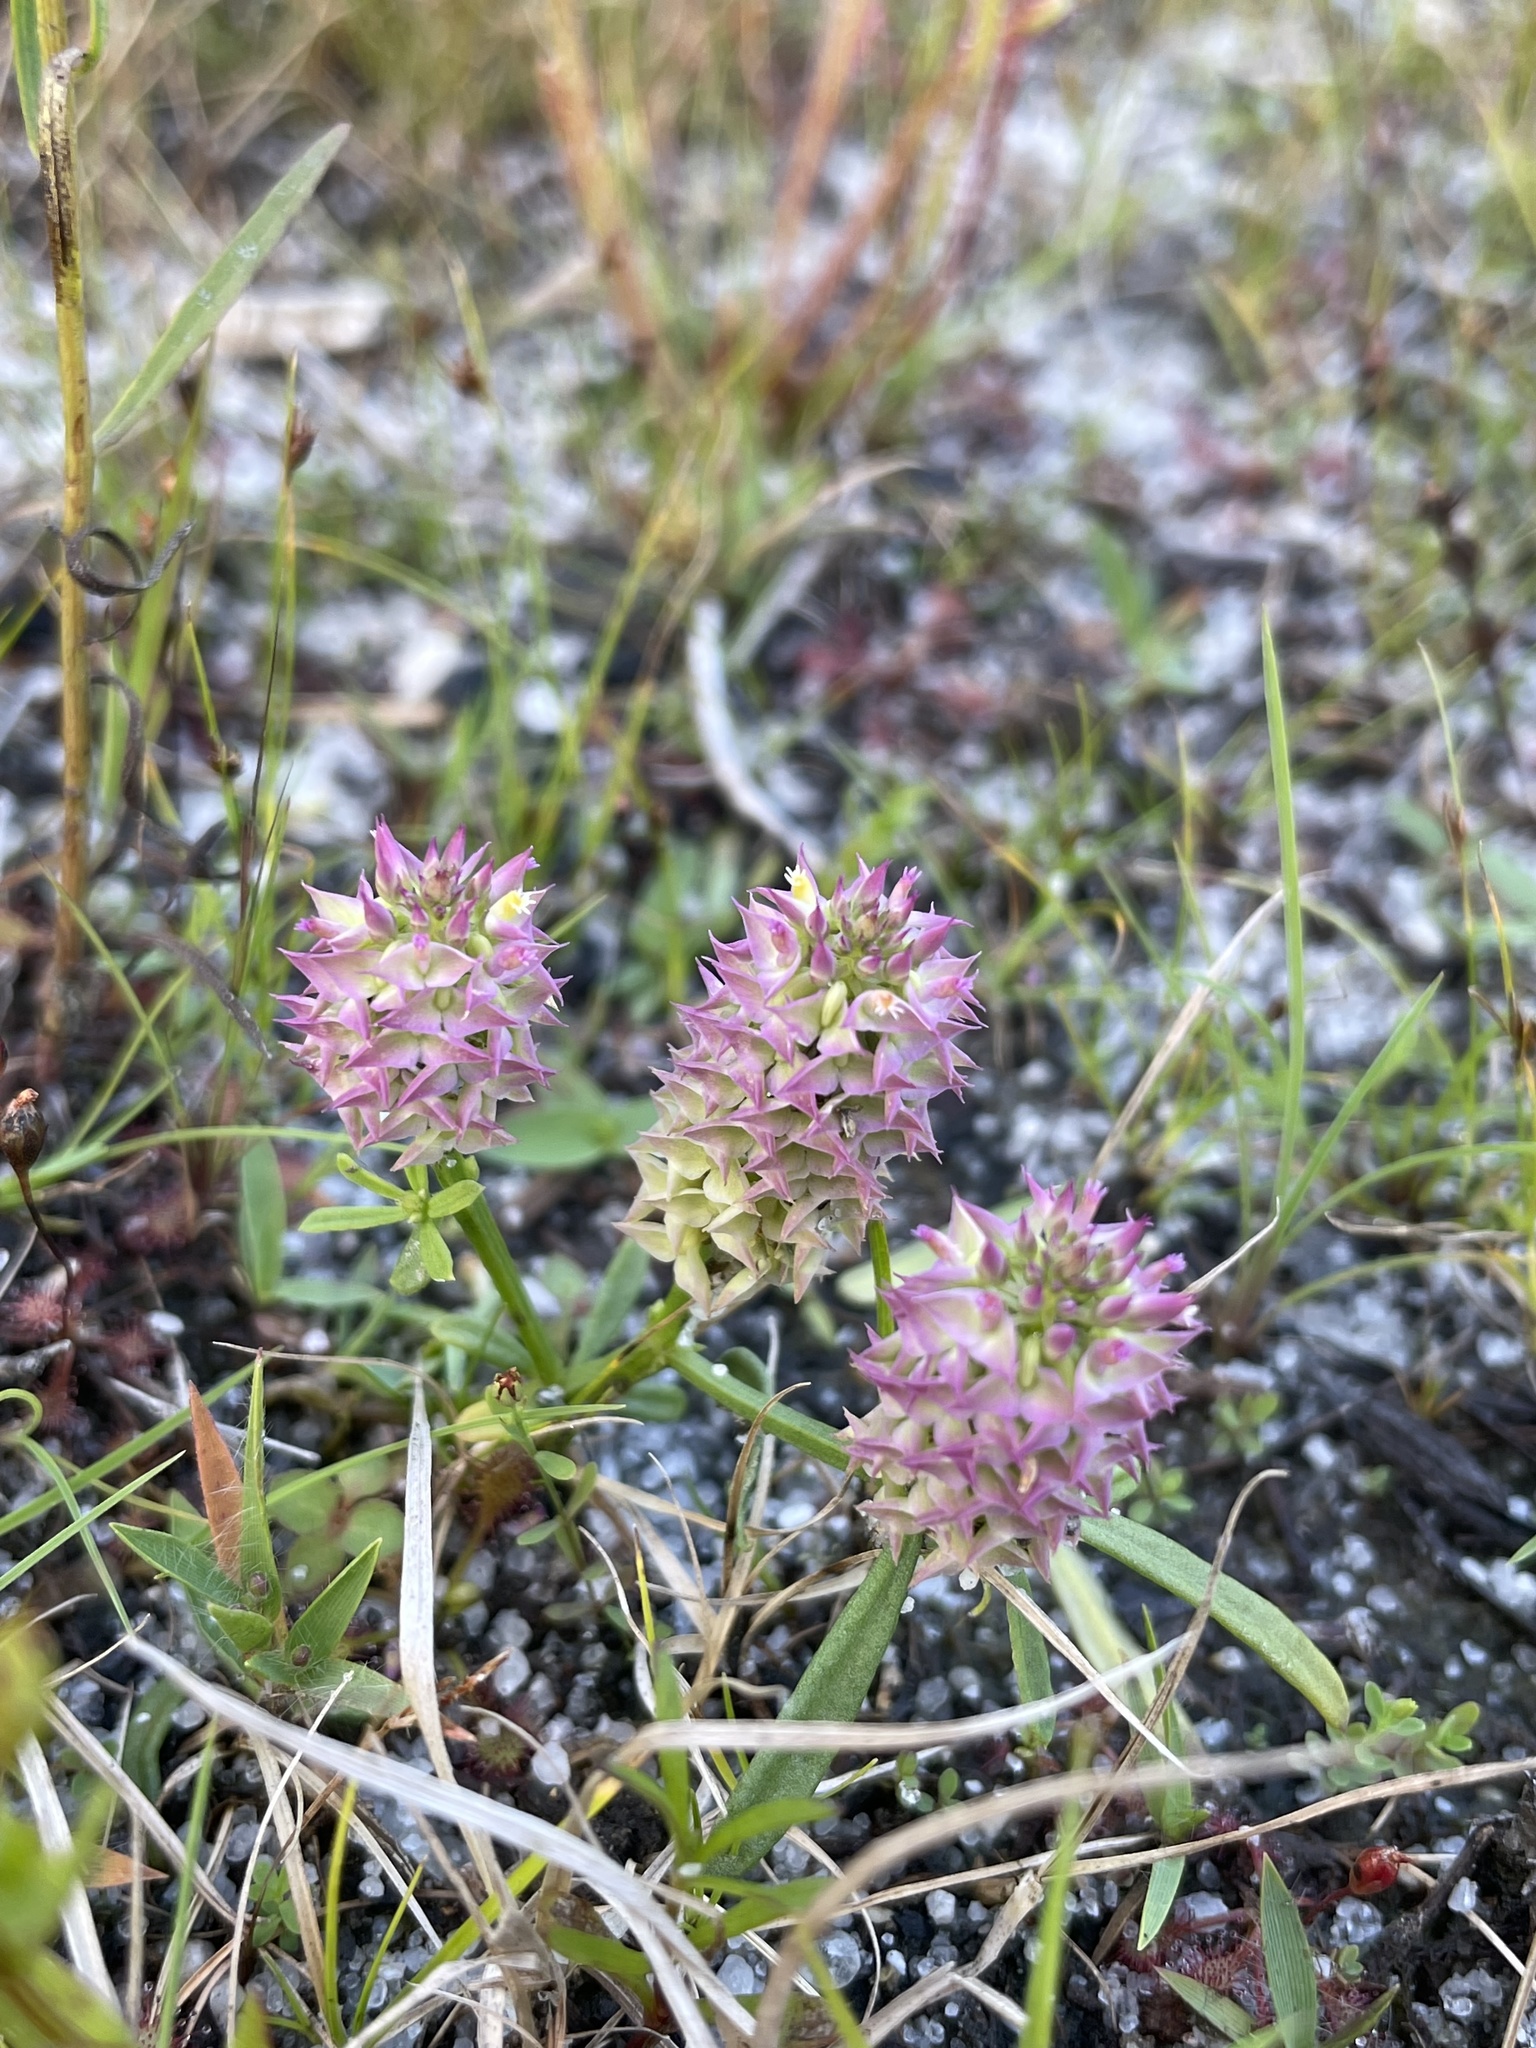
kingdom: Plantae
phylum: Tracheophyta
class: Magnoliopsida
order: Fabales
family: Polygalaceae
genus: Polygala
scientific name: Polygala cruciata
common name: Drumheads
